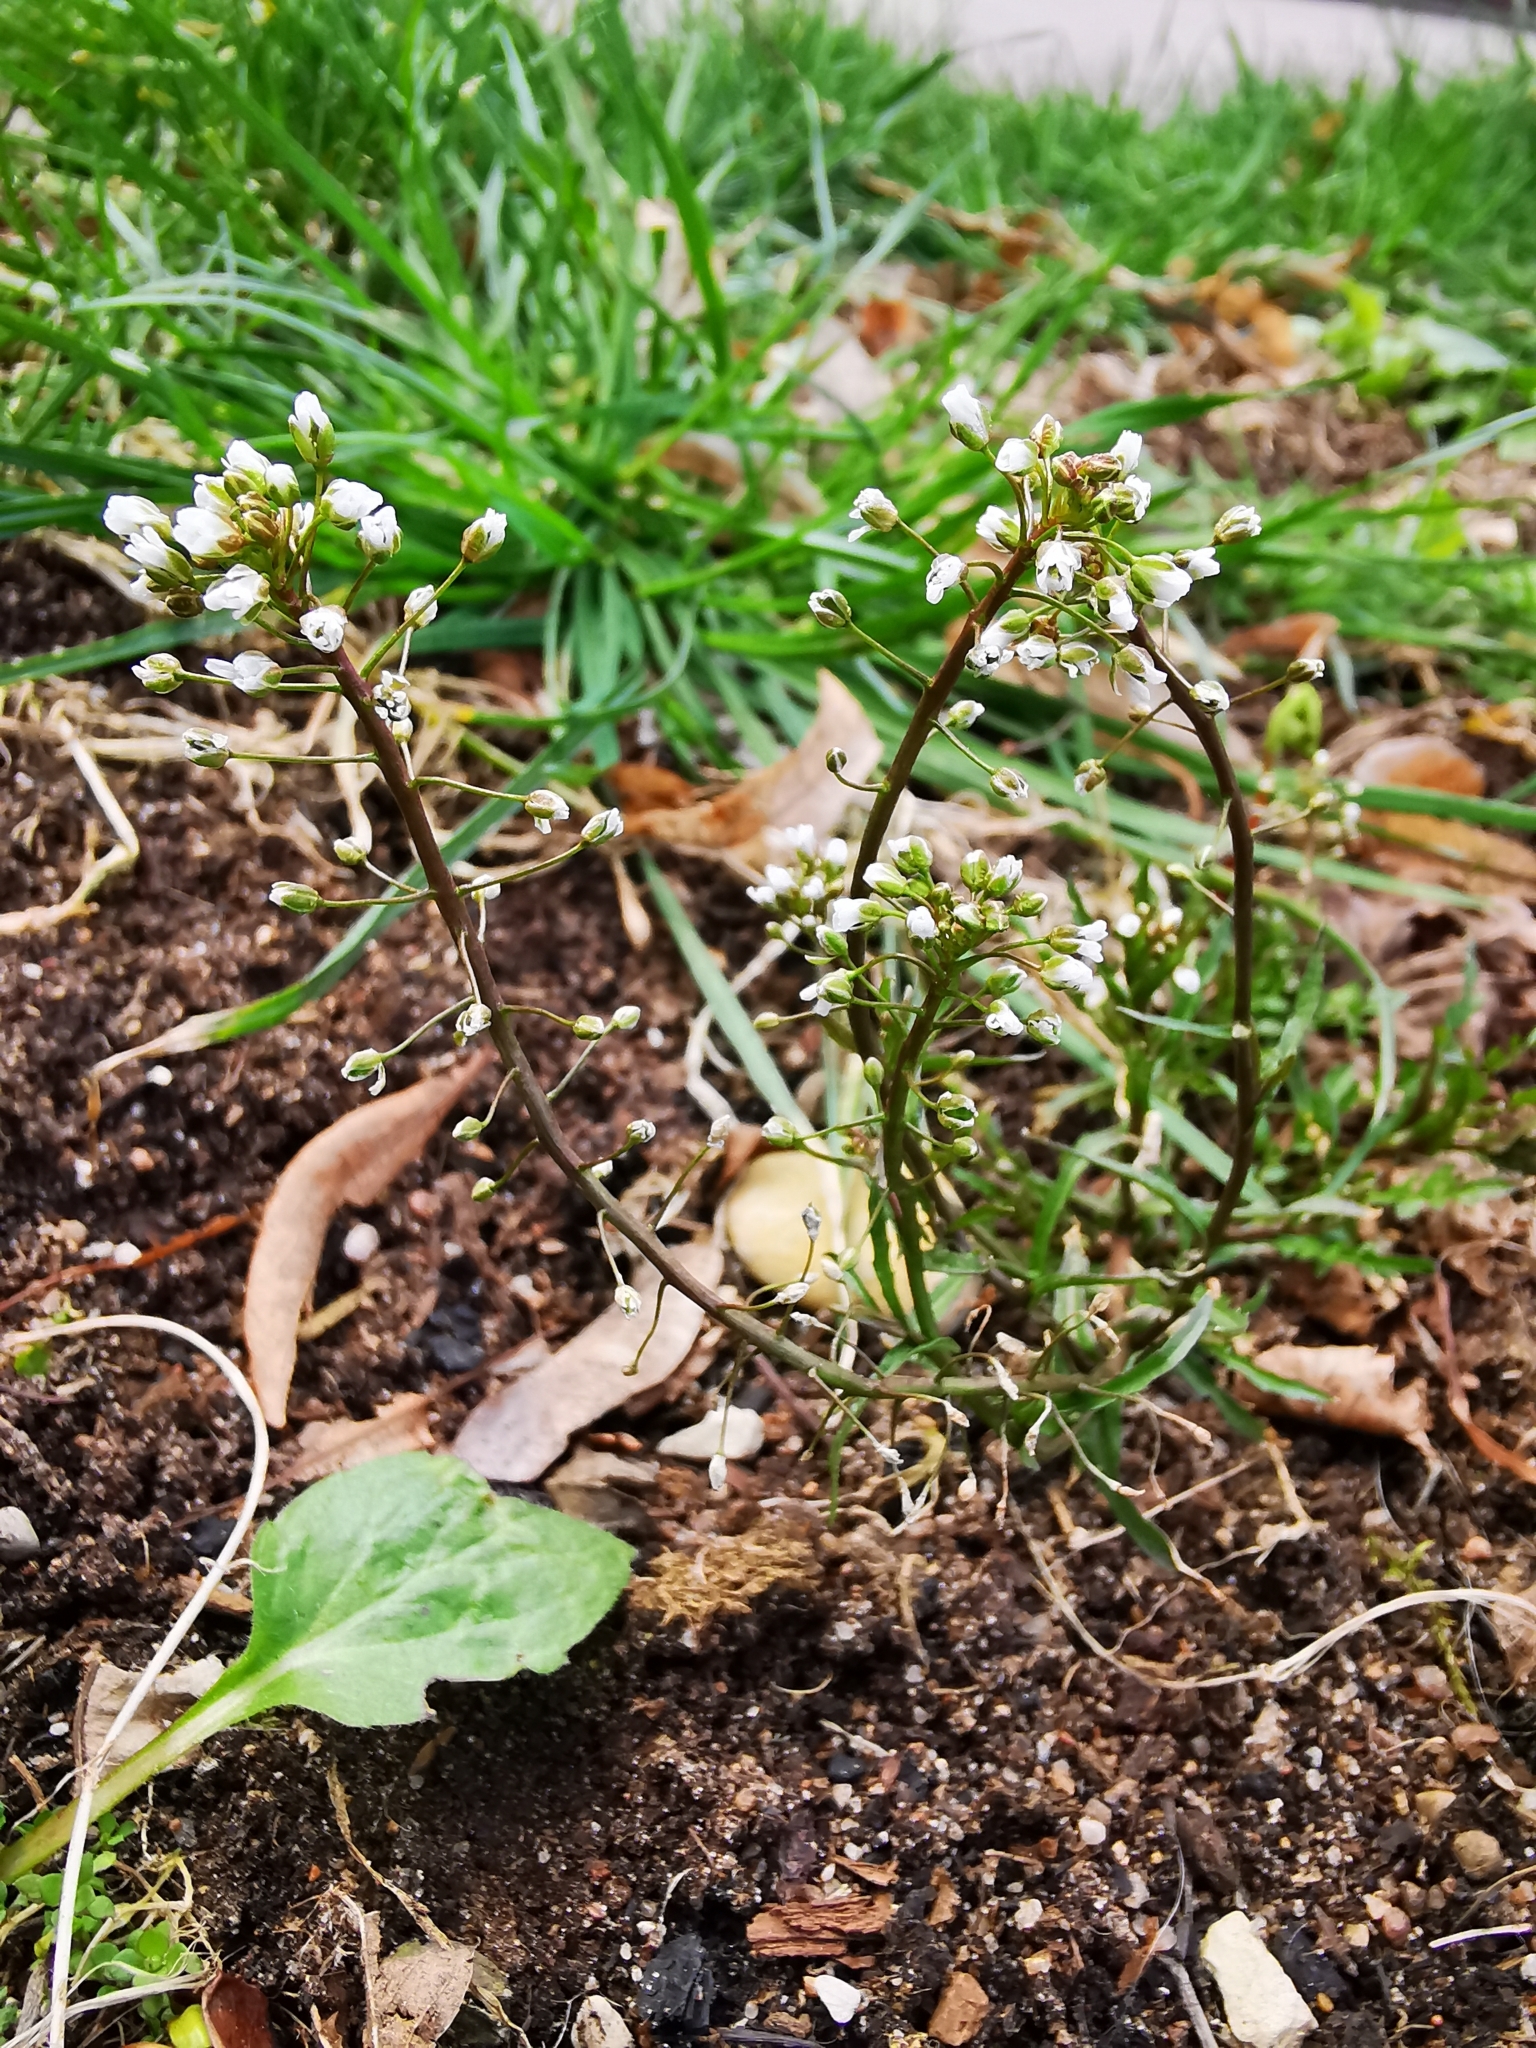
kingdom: Plantae
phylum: Tracheophyta
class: Magnoliopsida
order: Brassicales
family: Brassicaceae
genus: Capsella
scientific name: Capsella bursa-pastoris
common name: Shepherd's purse
